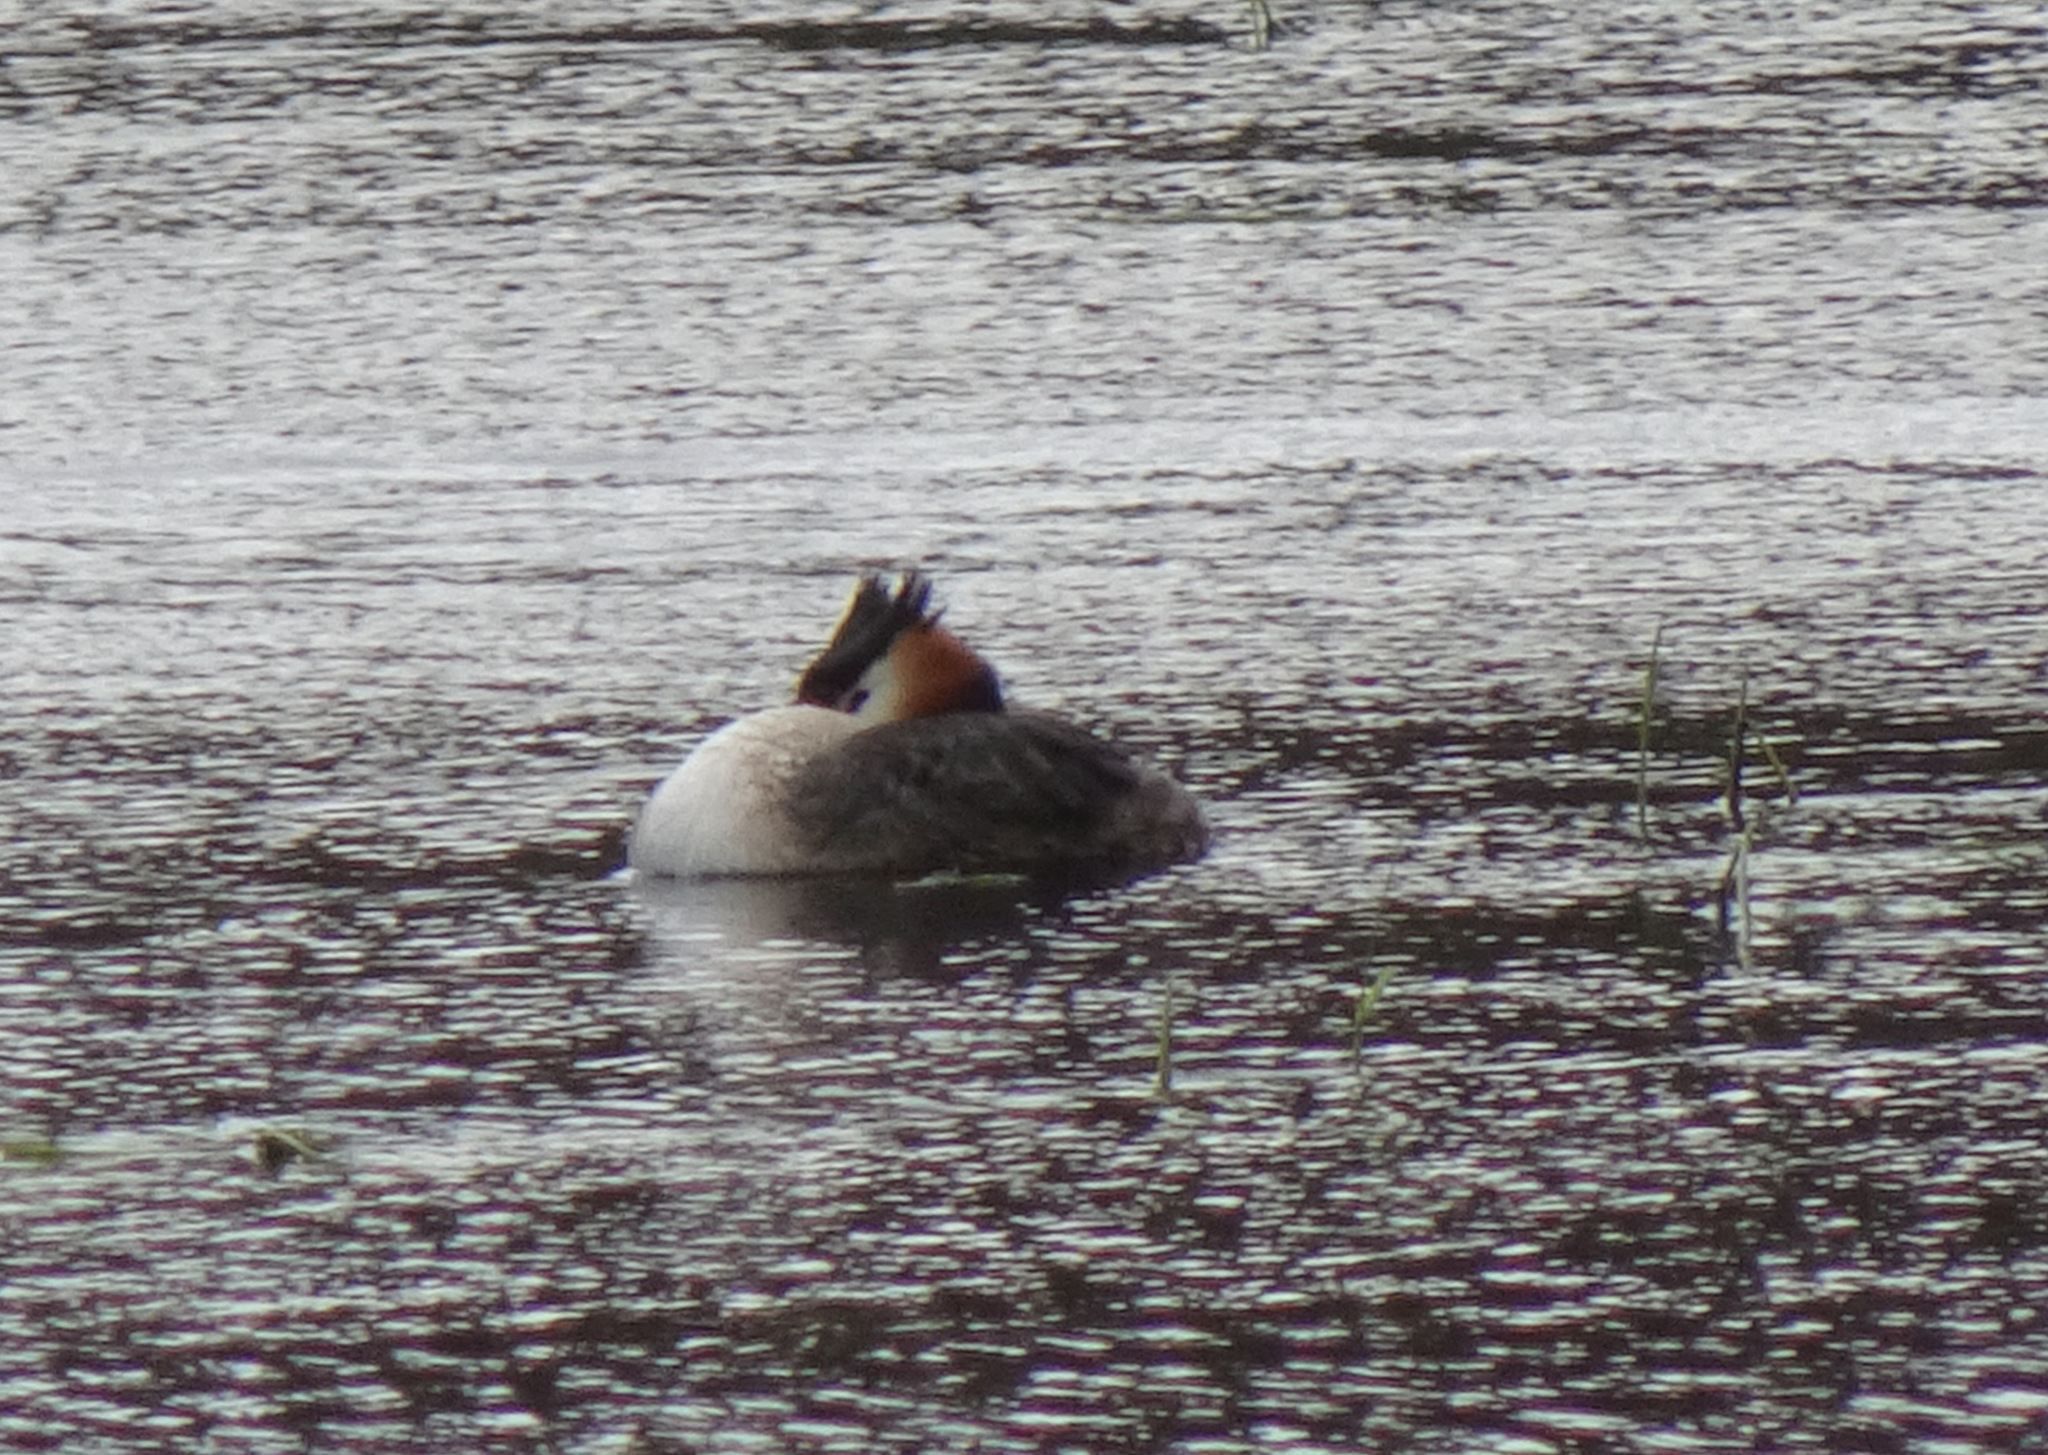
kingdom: Animalia
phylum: Chordata
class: Aves
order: Podicipediformes
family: Podicipedidae
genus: Podiceps
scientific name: Podiceps cristatus
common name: Great crested grebe
